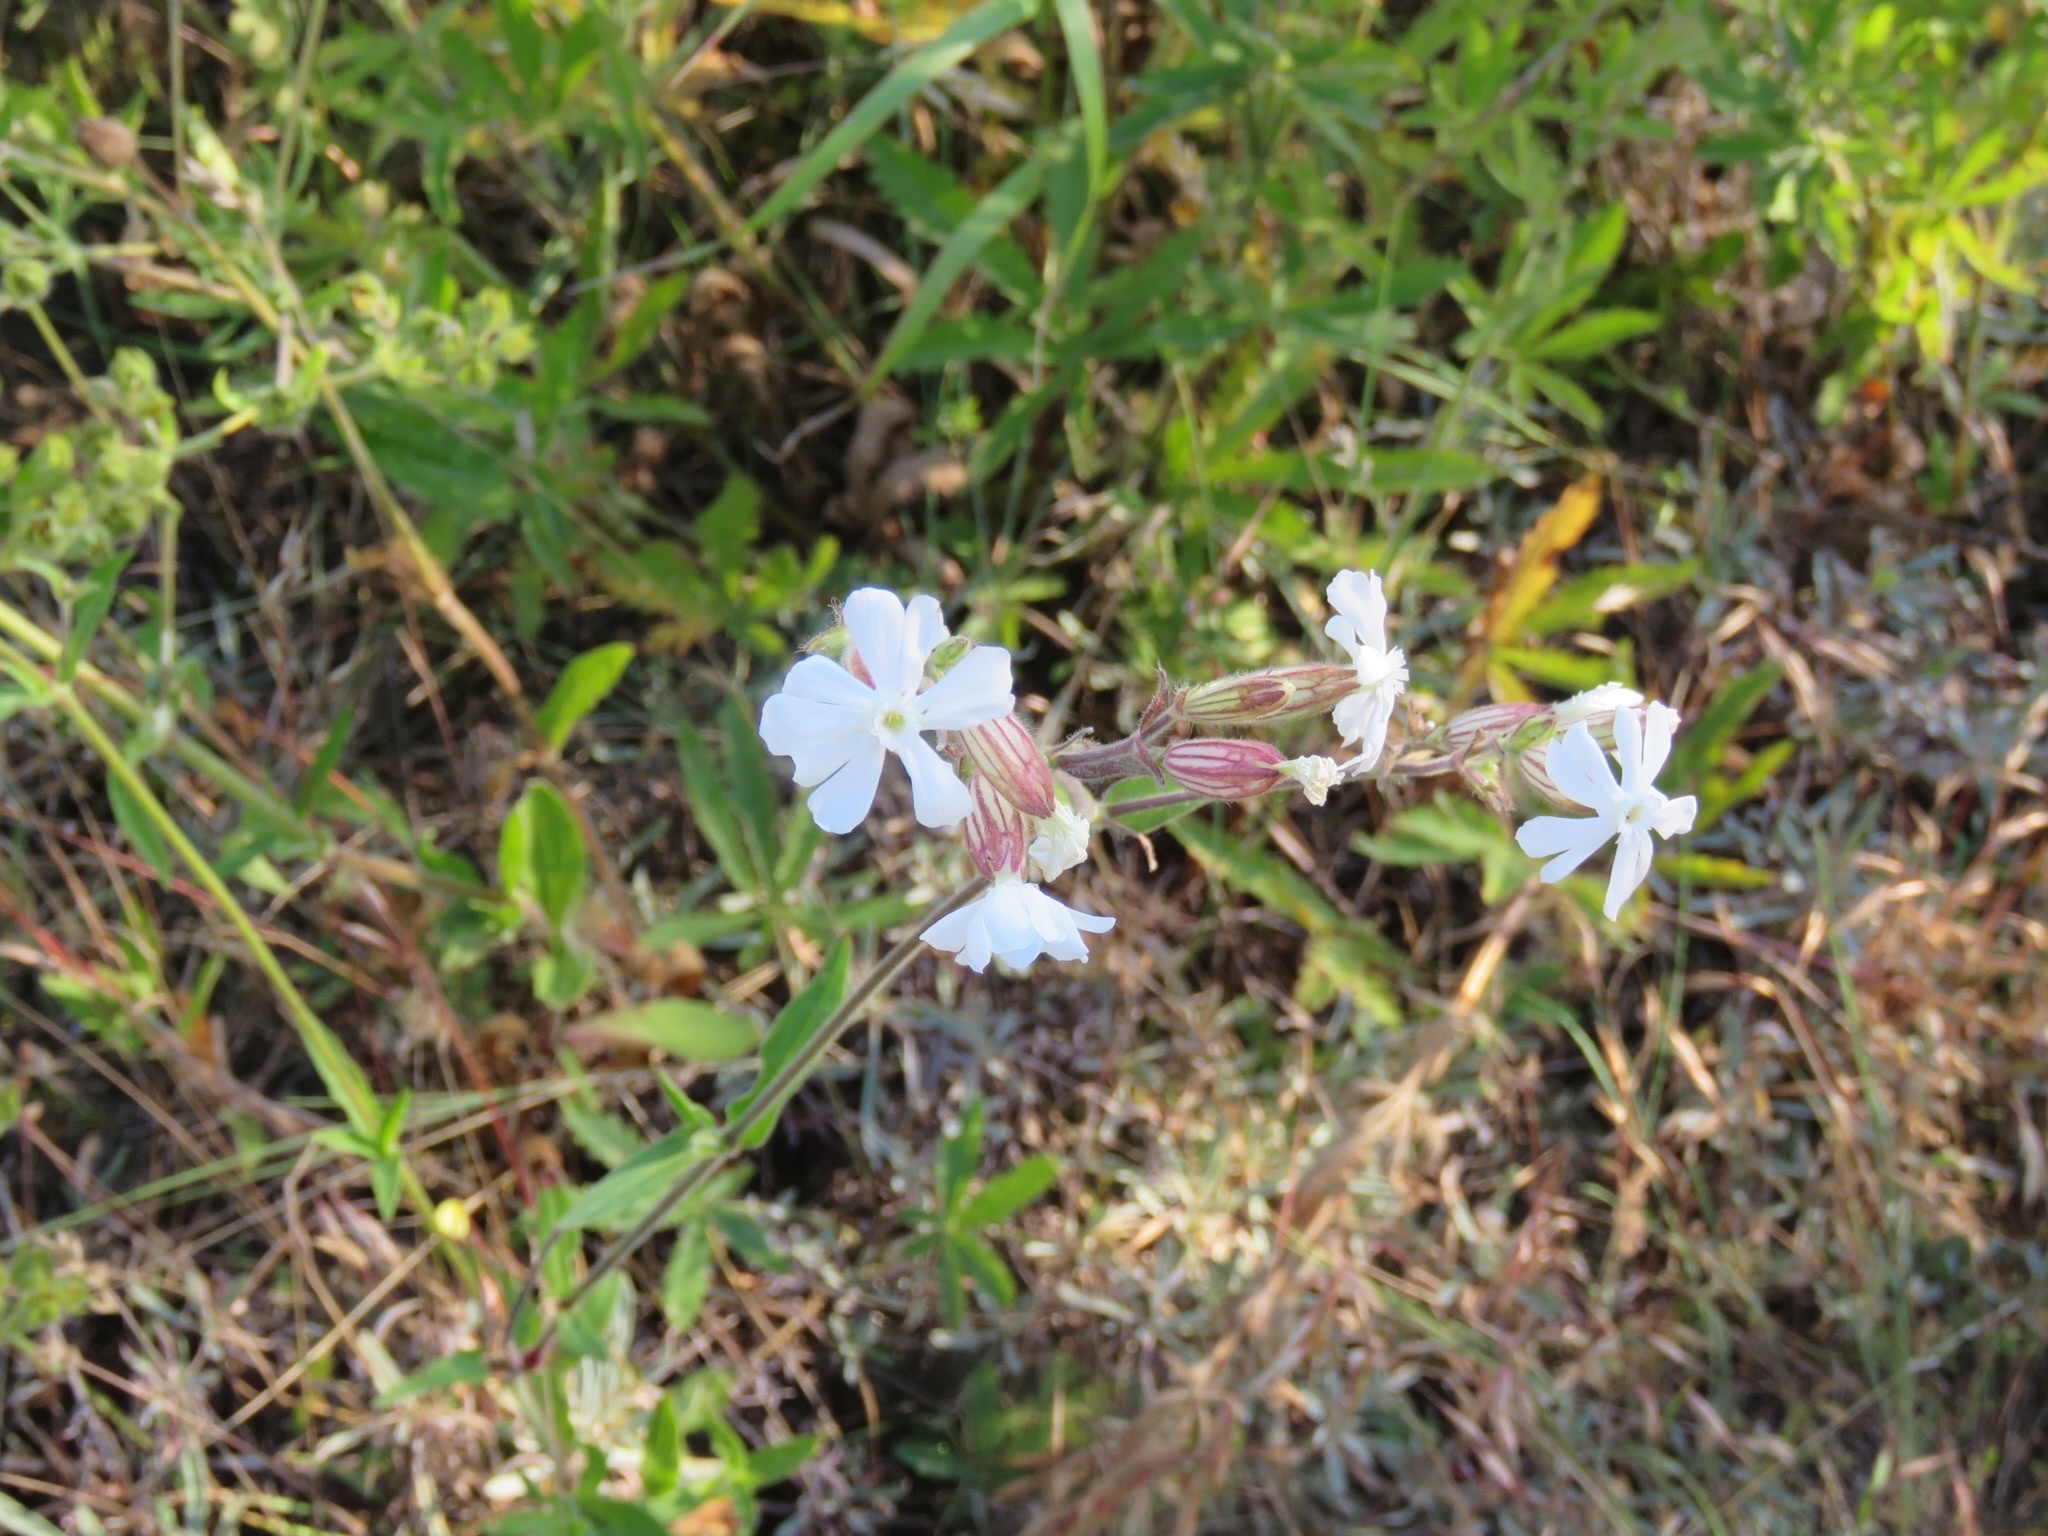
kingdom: Plantae
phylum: Tracheophyta
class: Magnoliopsida
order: Caryophyllales
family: Caryophyllaceae
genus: Silene
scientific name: Silene latifolia
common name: White campion
